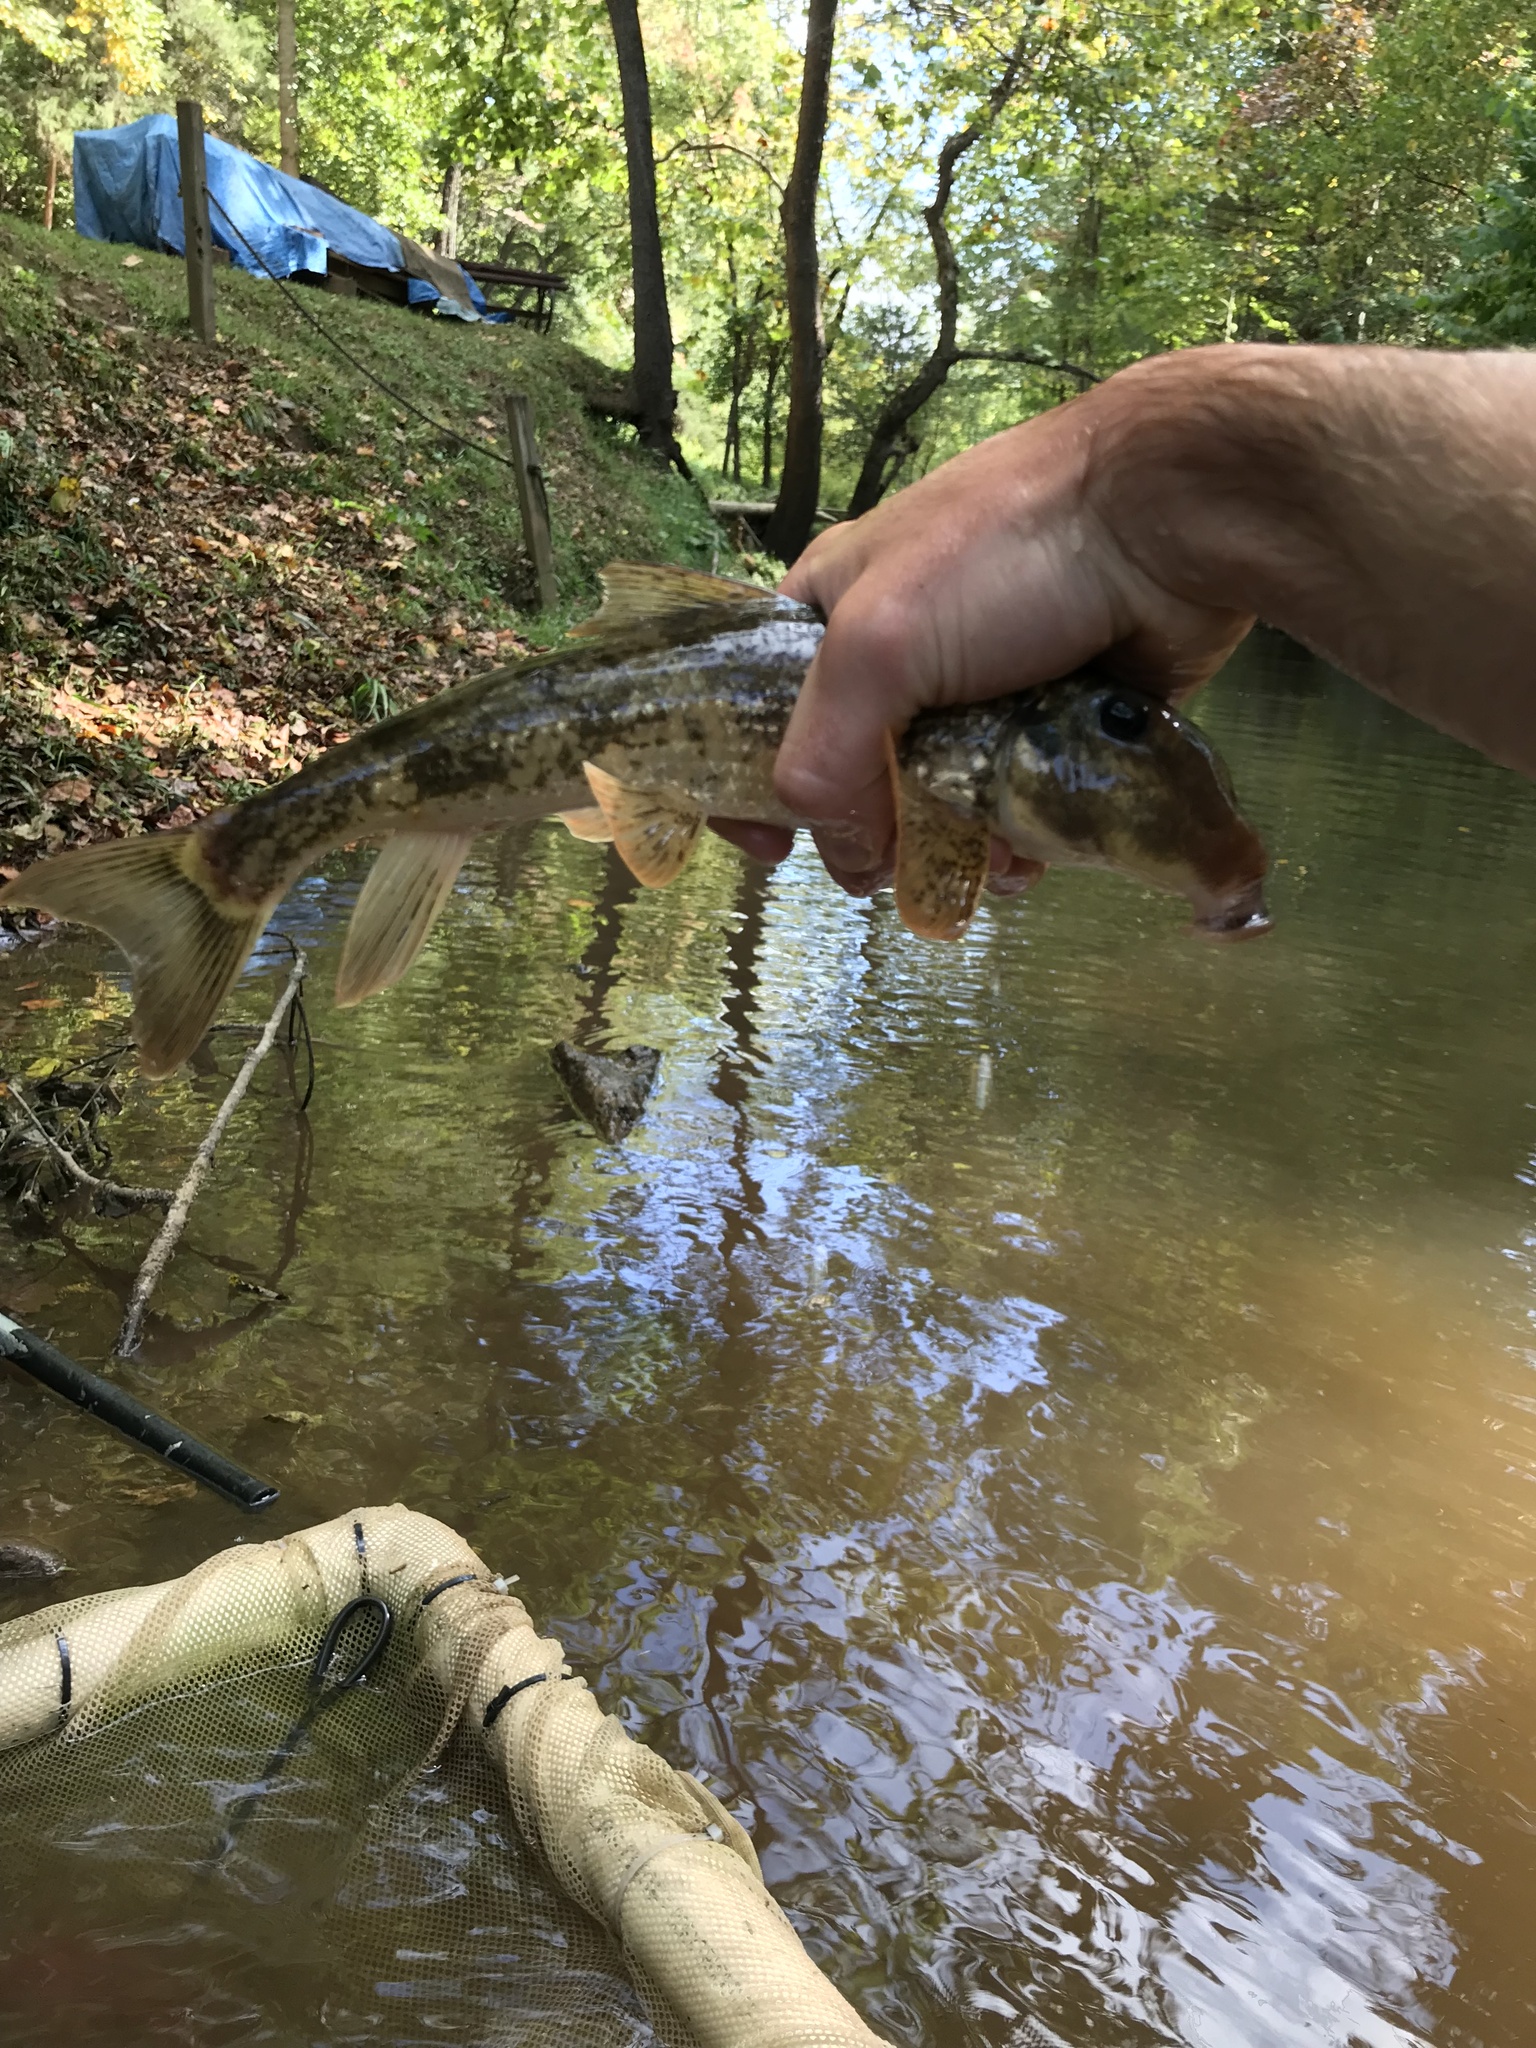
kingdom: Animalia
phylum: Chordata
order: Cypriniformes
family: Catostomidae
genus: Hypentelium
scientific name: Hypentelium nigricans
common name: Northern hog sucker
